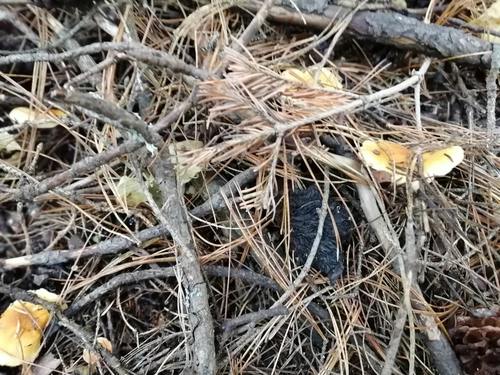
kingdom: Fungi
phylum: Basidiomycota
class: Agaricomycetes
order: Boletales
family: Hygrophoropsidaceae
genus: Hygrophoropsis
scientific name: Hygrophoropsis aurantiaca
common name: False chanterelle
